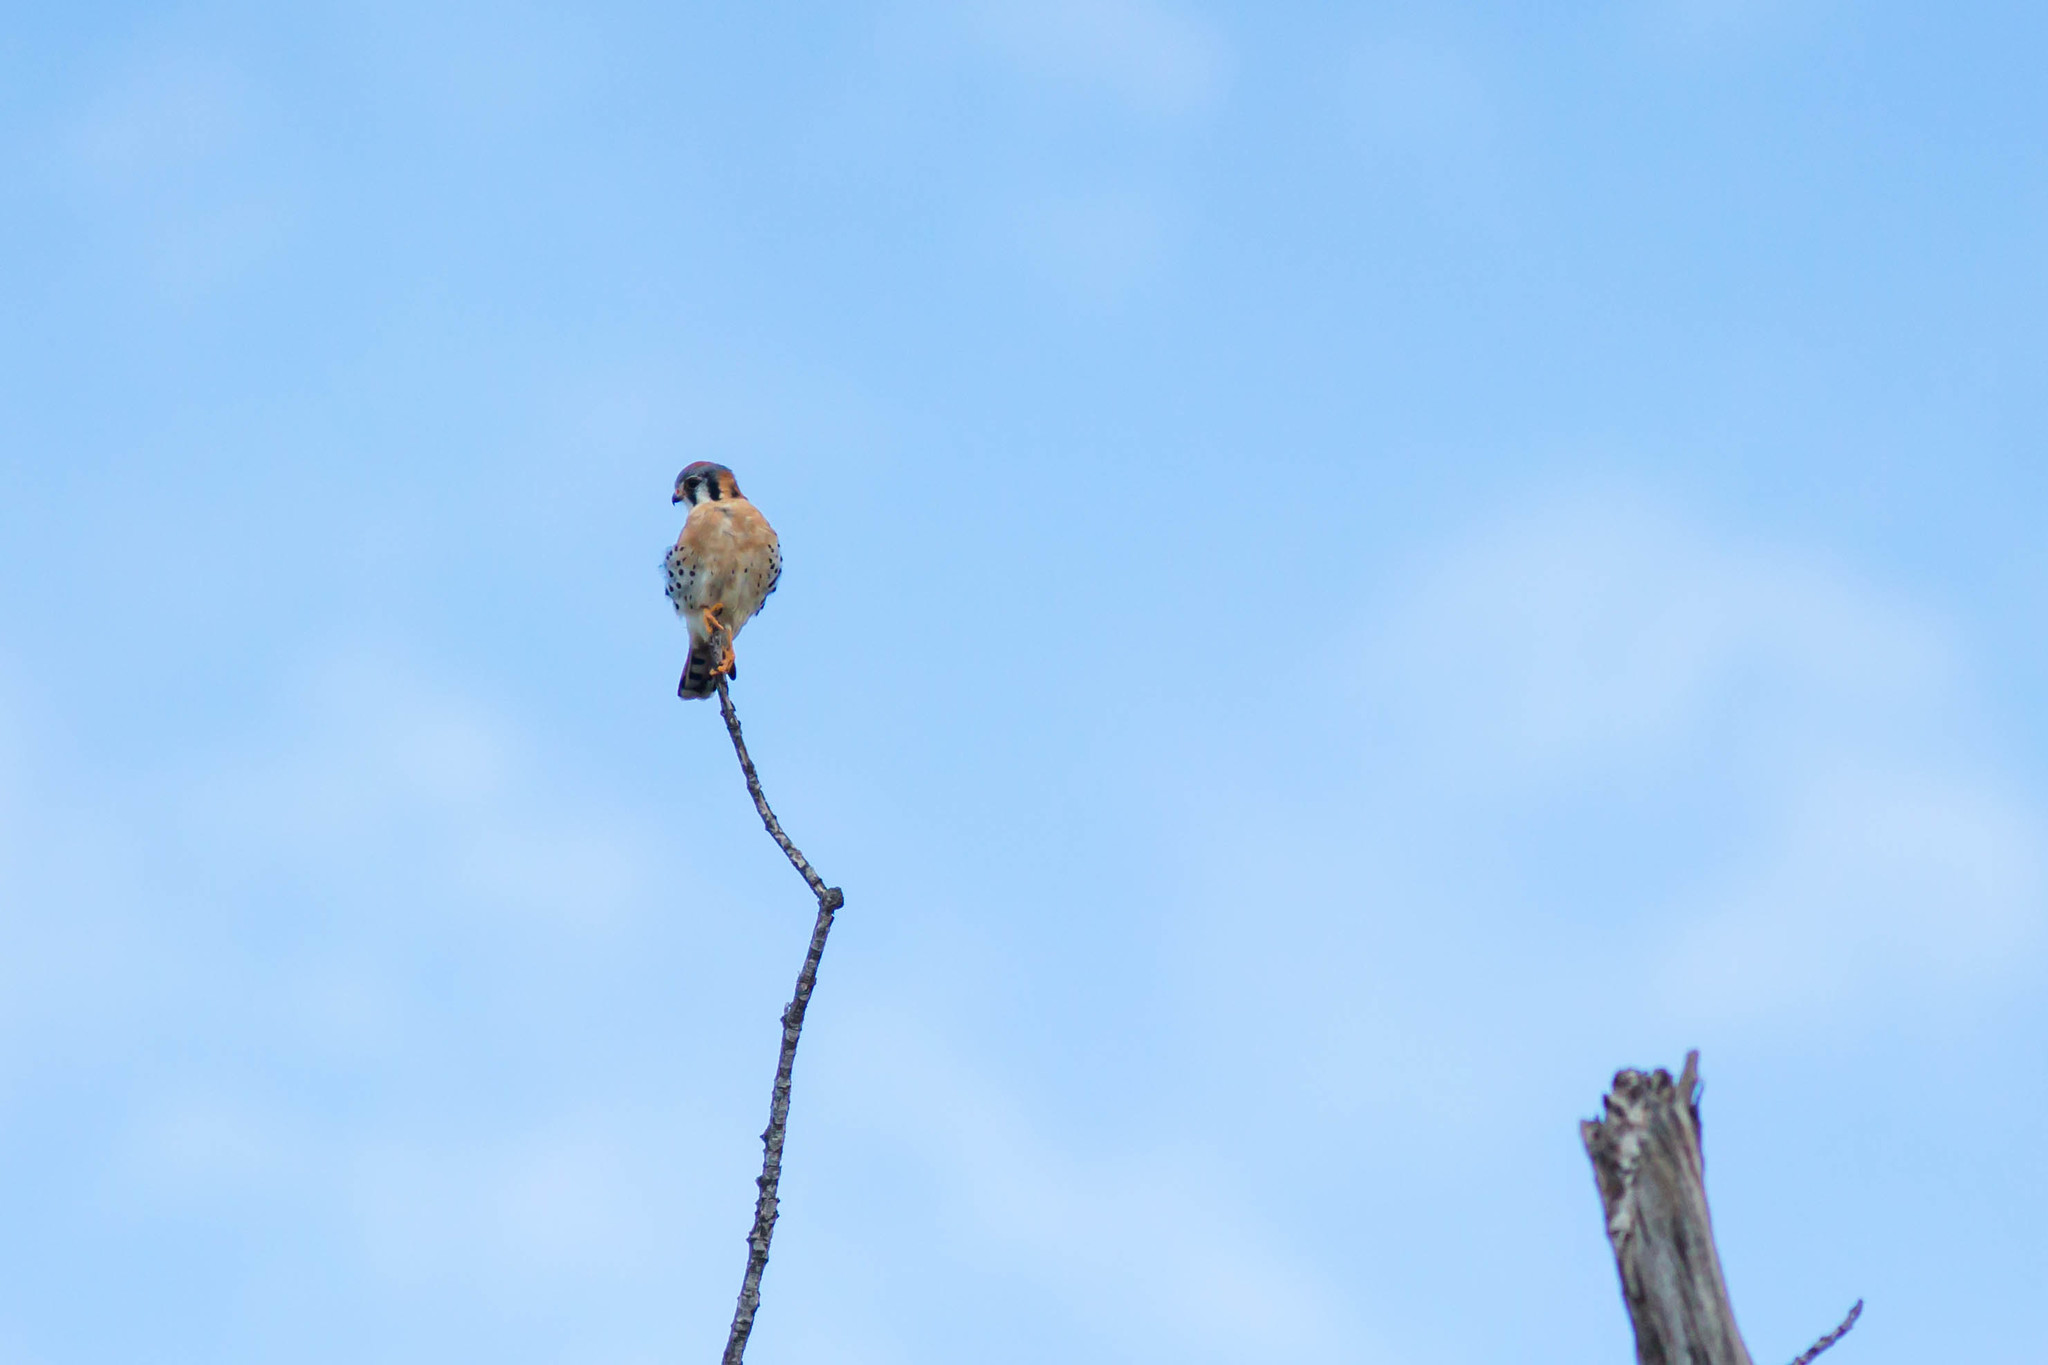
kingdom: Animalia
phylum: Chordata
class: Aves
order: Falconiformes
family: Falconidae
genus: Falco
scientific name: Falco sparverius
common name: American kestrel
